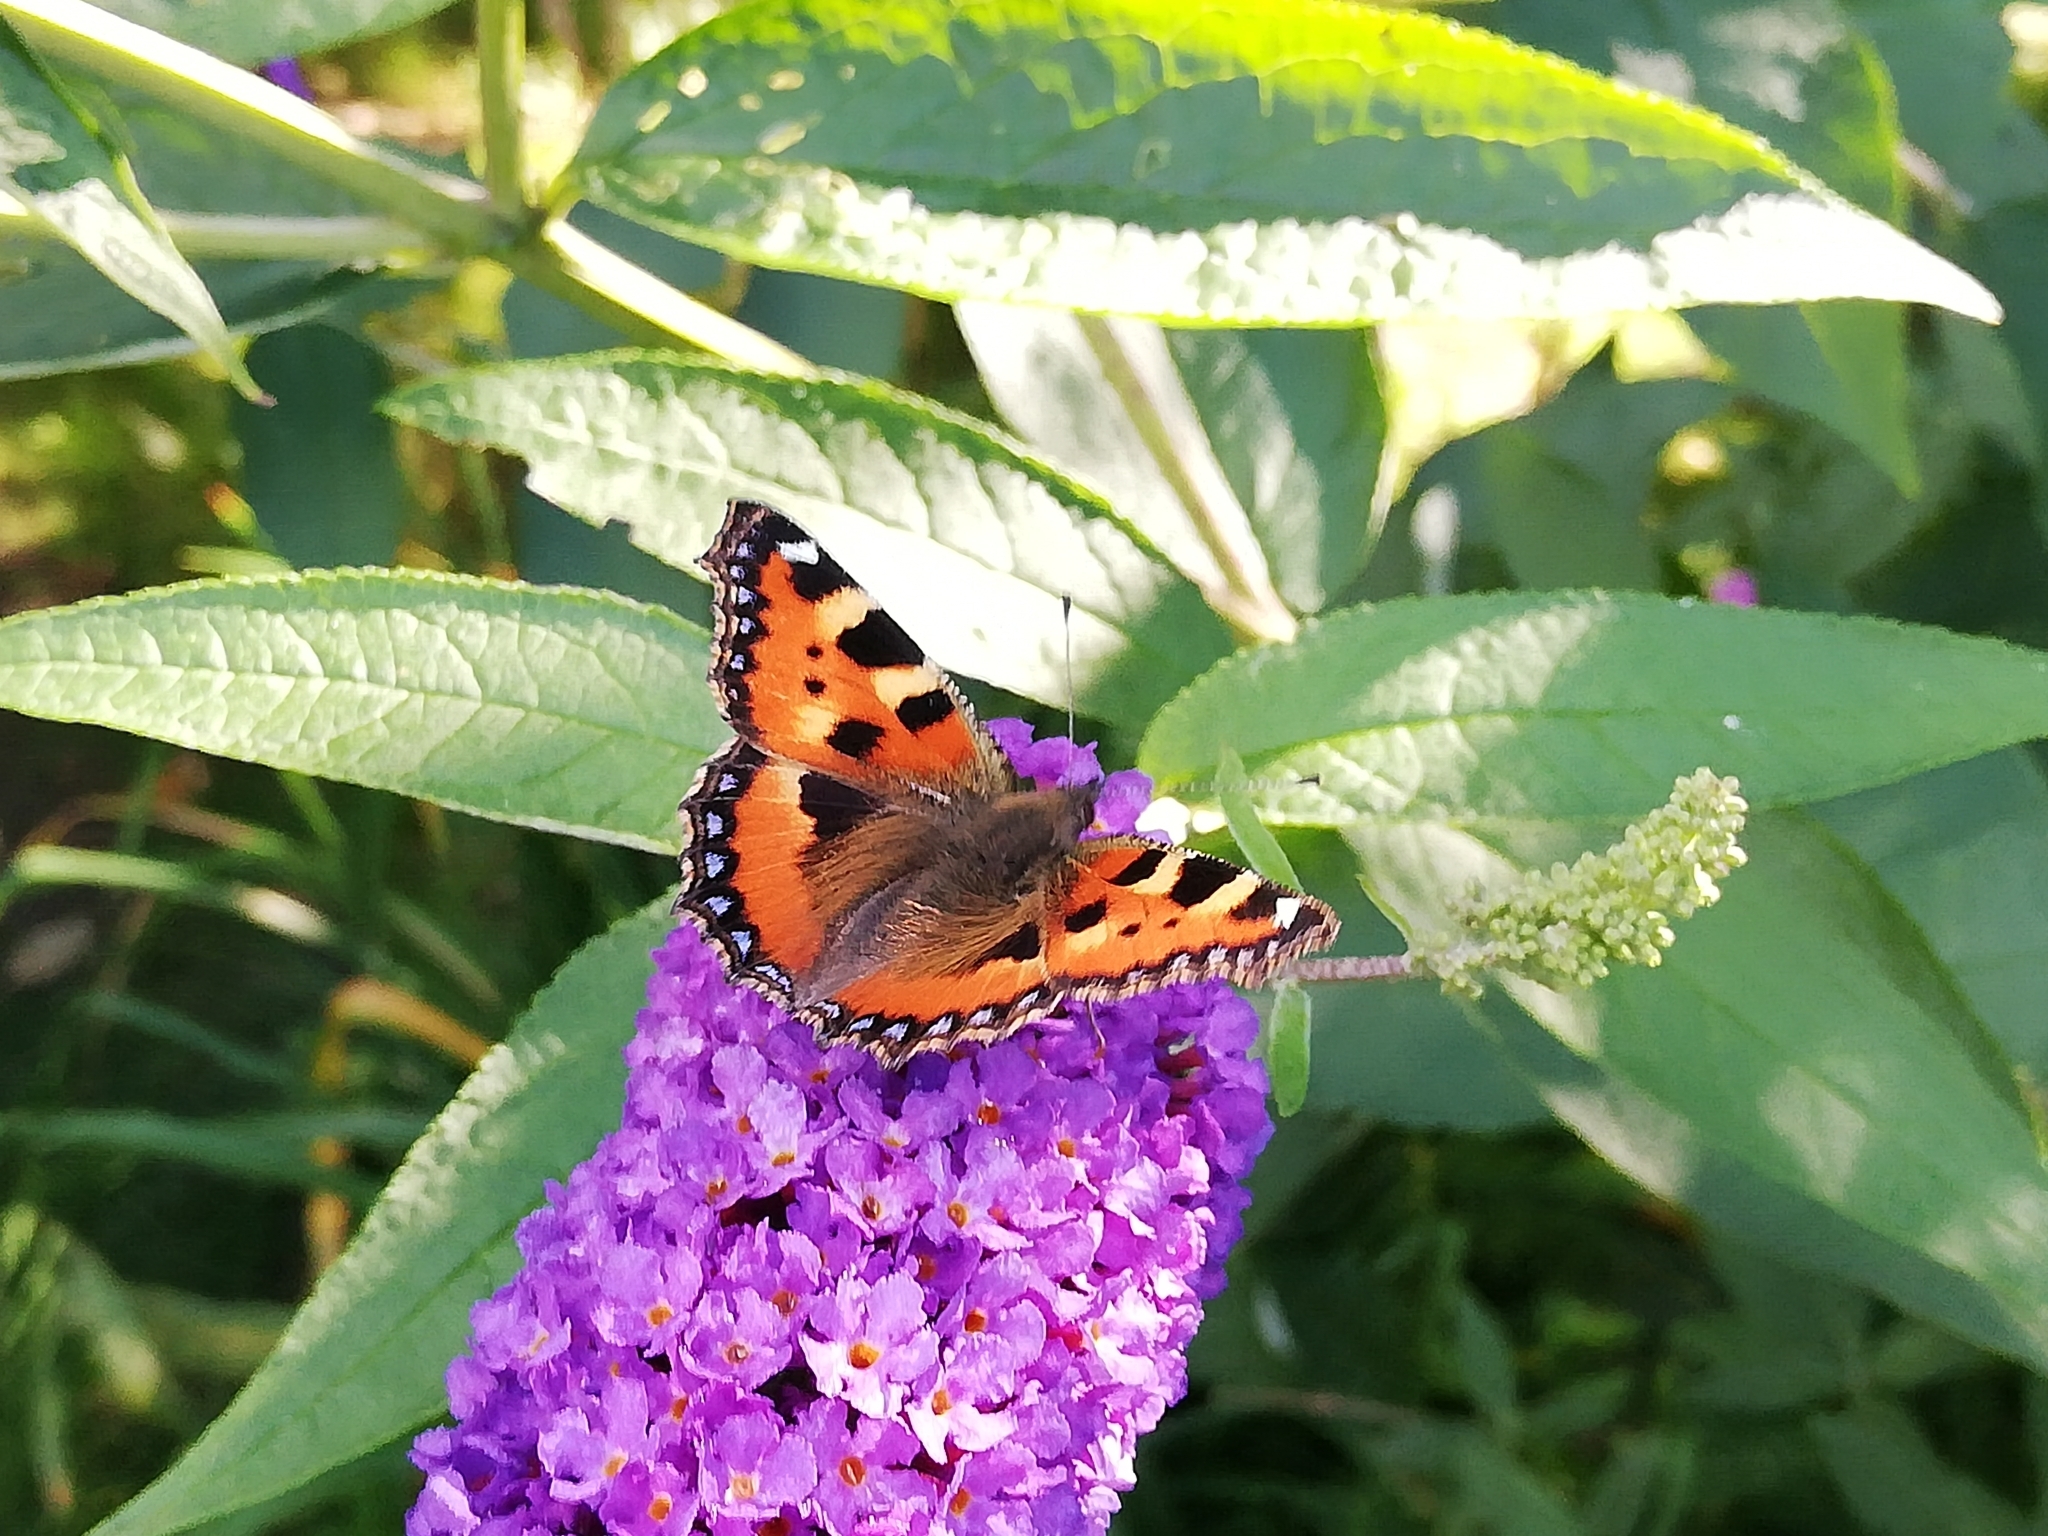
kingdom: Animalia
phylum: Arthropoda
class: Insecta
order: Lepidoptera
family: Nymphalidae
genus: Aglais
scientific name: Aglais urticae
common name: Small tortoiseshell
